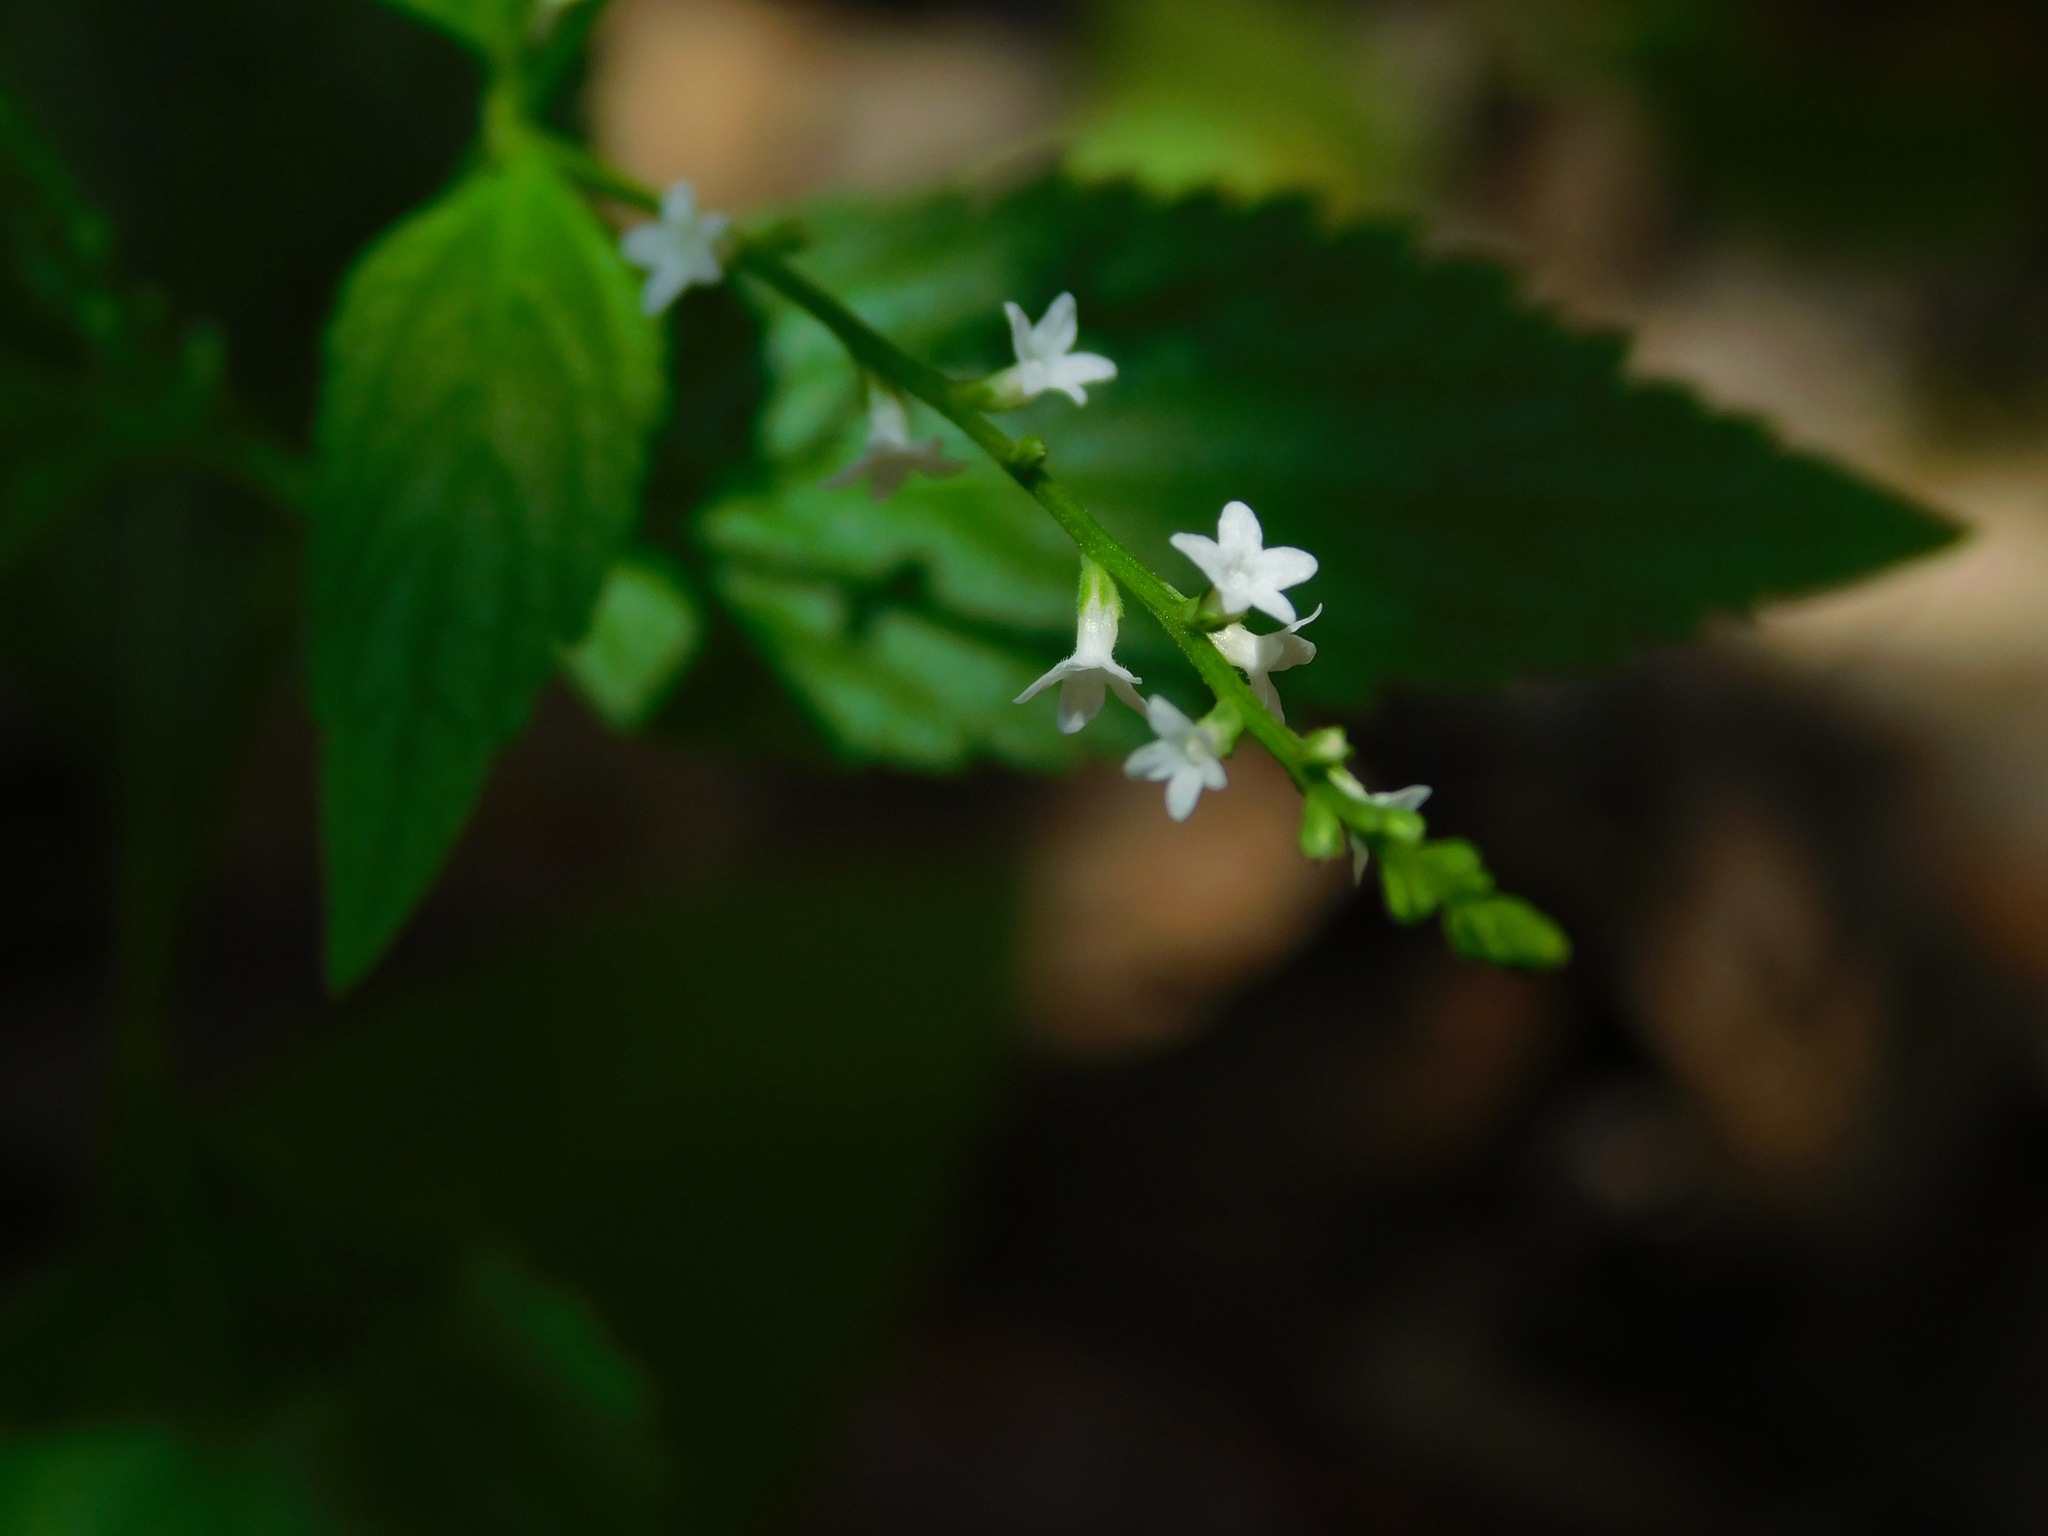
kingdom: Plantae
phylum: Tracheophyta
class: Magnoliopsida
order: Lamiales
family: Verbenaceae
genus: Verbena
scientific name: Verbena urticifolia
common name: Nettle-leaved vervain
